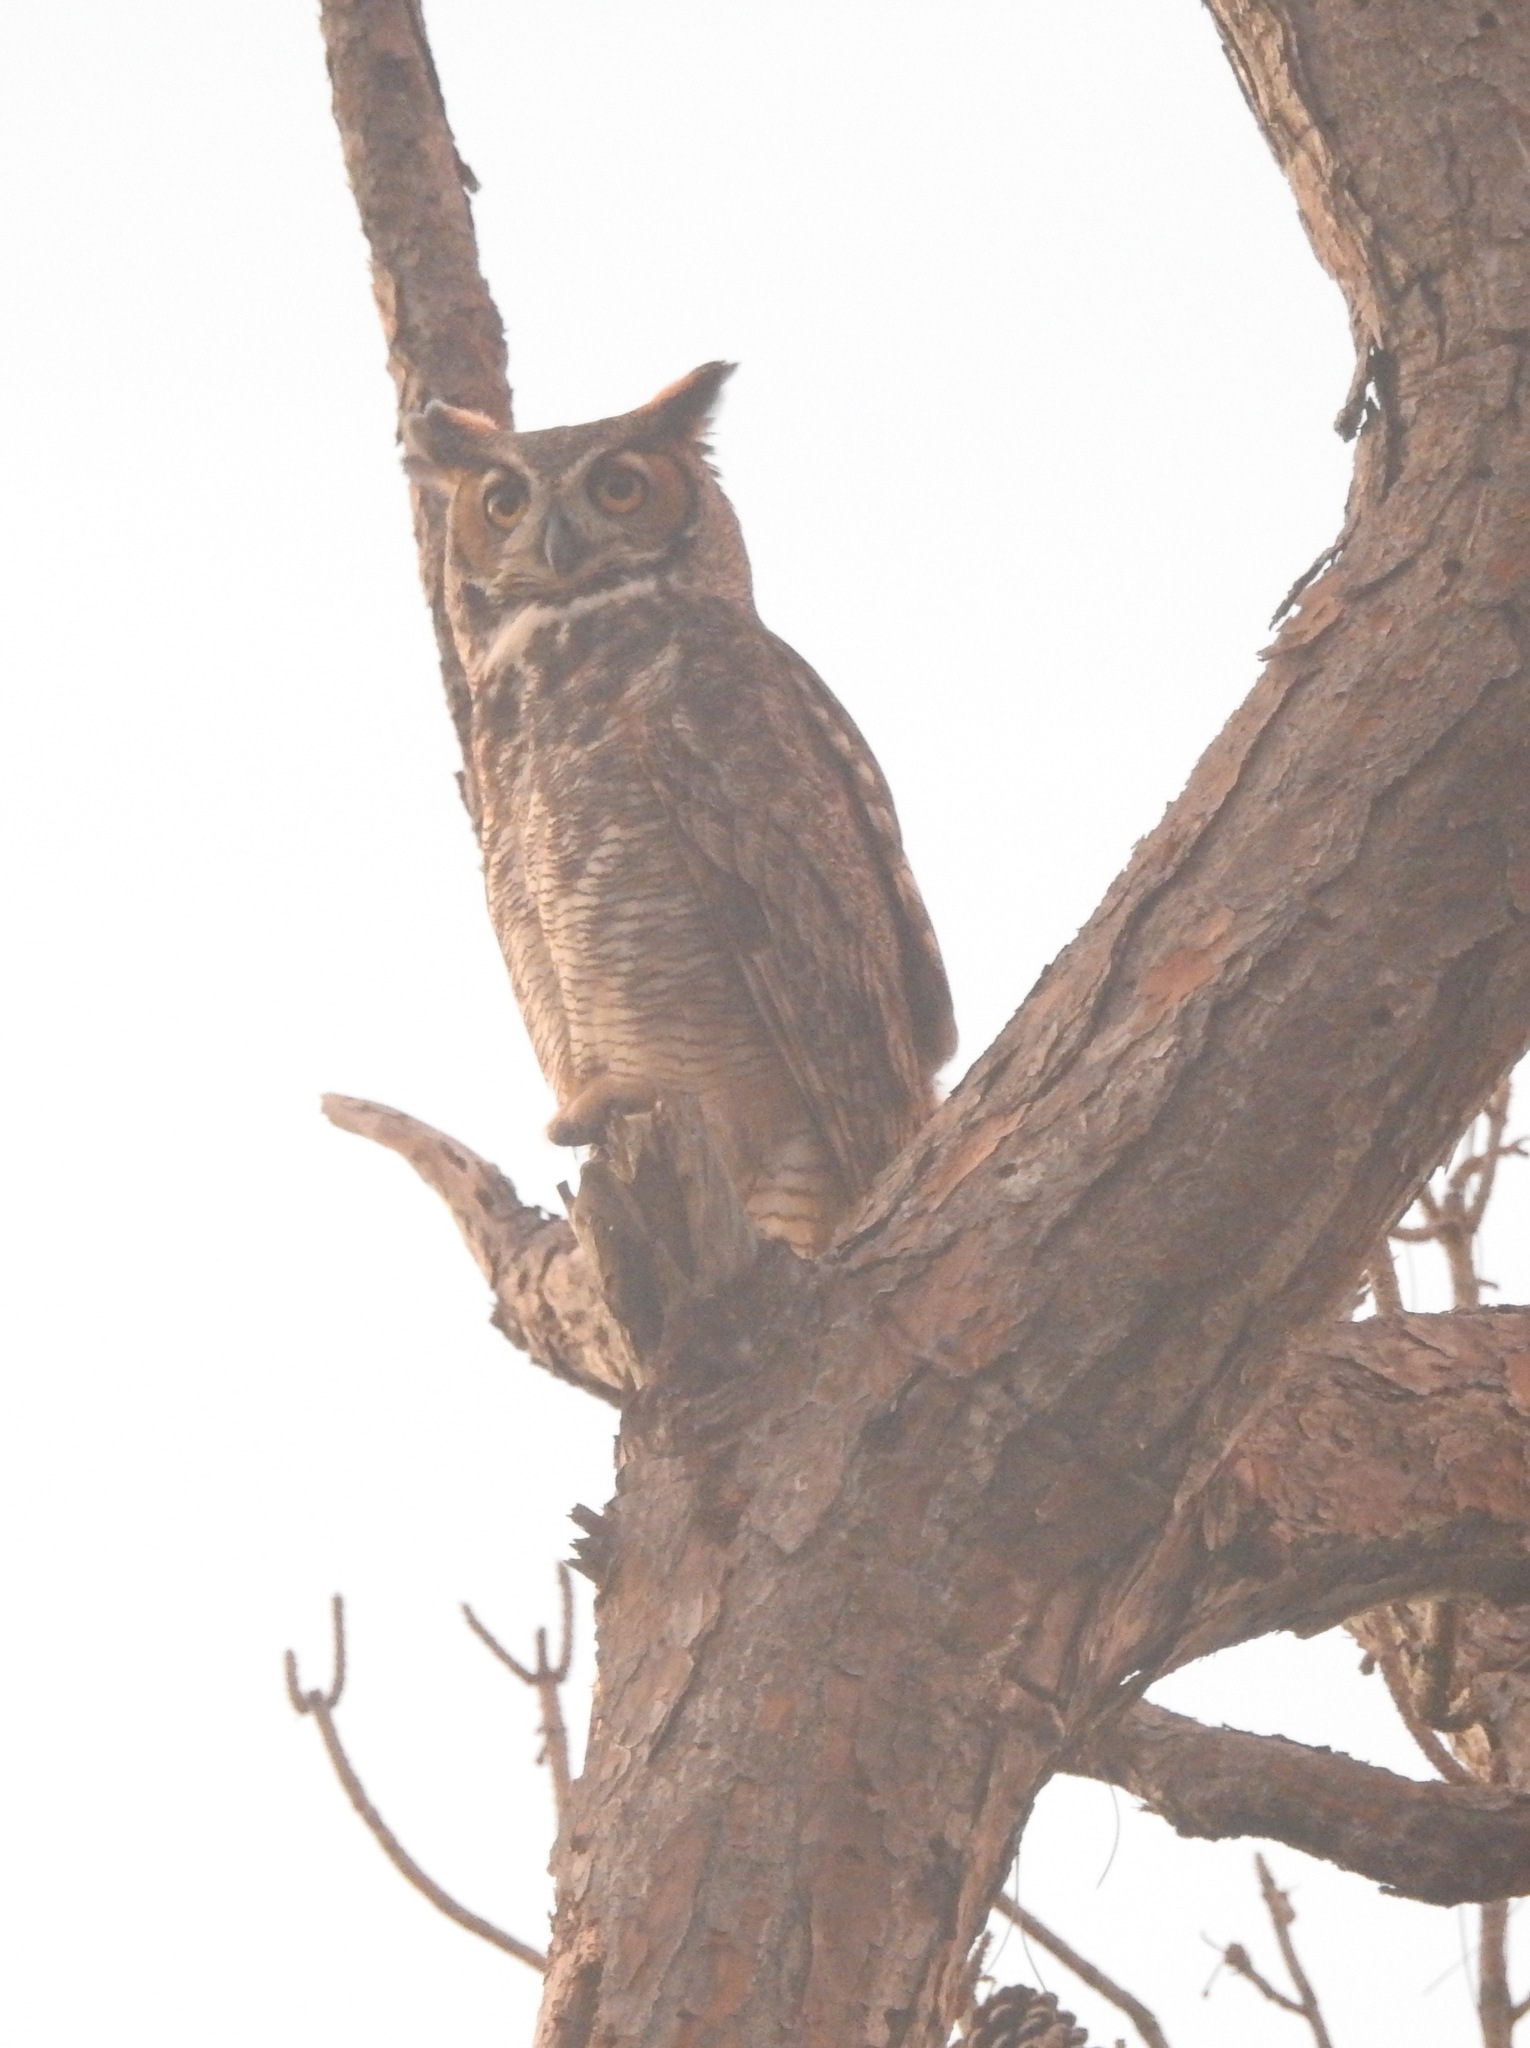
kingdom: Animalia
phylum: Chordata
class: Aves
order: Strigiformes
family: Strigidae
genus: Bubo
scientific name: Bubo virginianus
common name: Great horned owl
